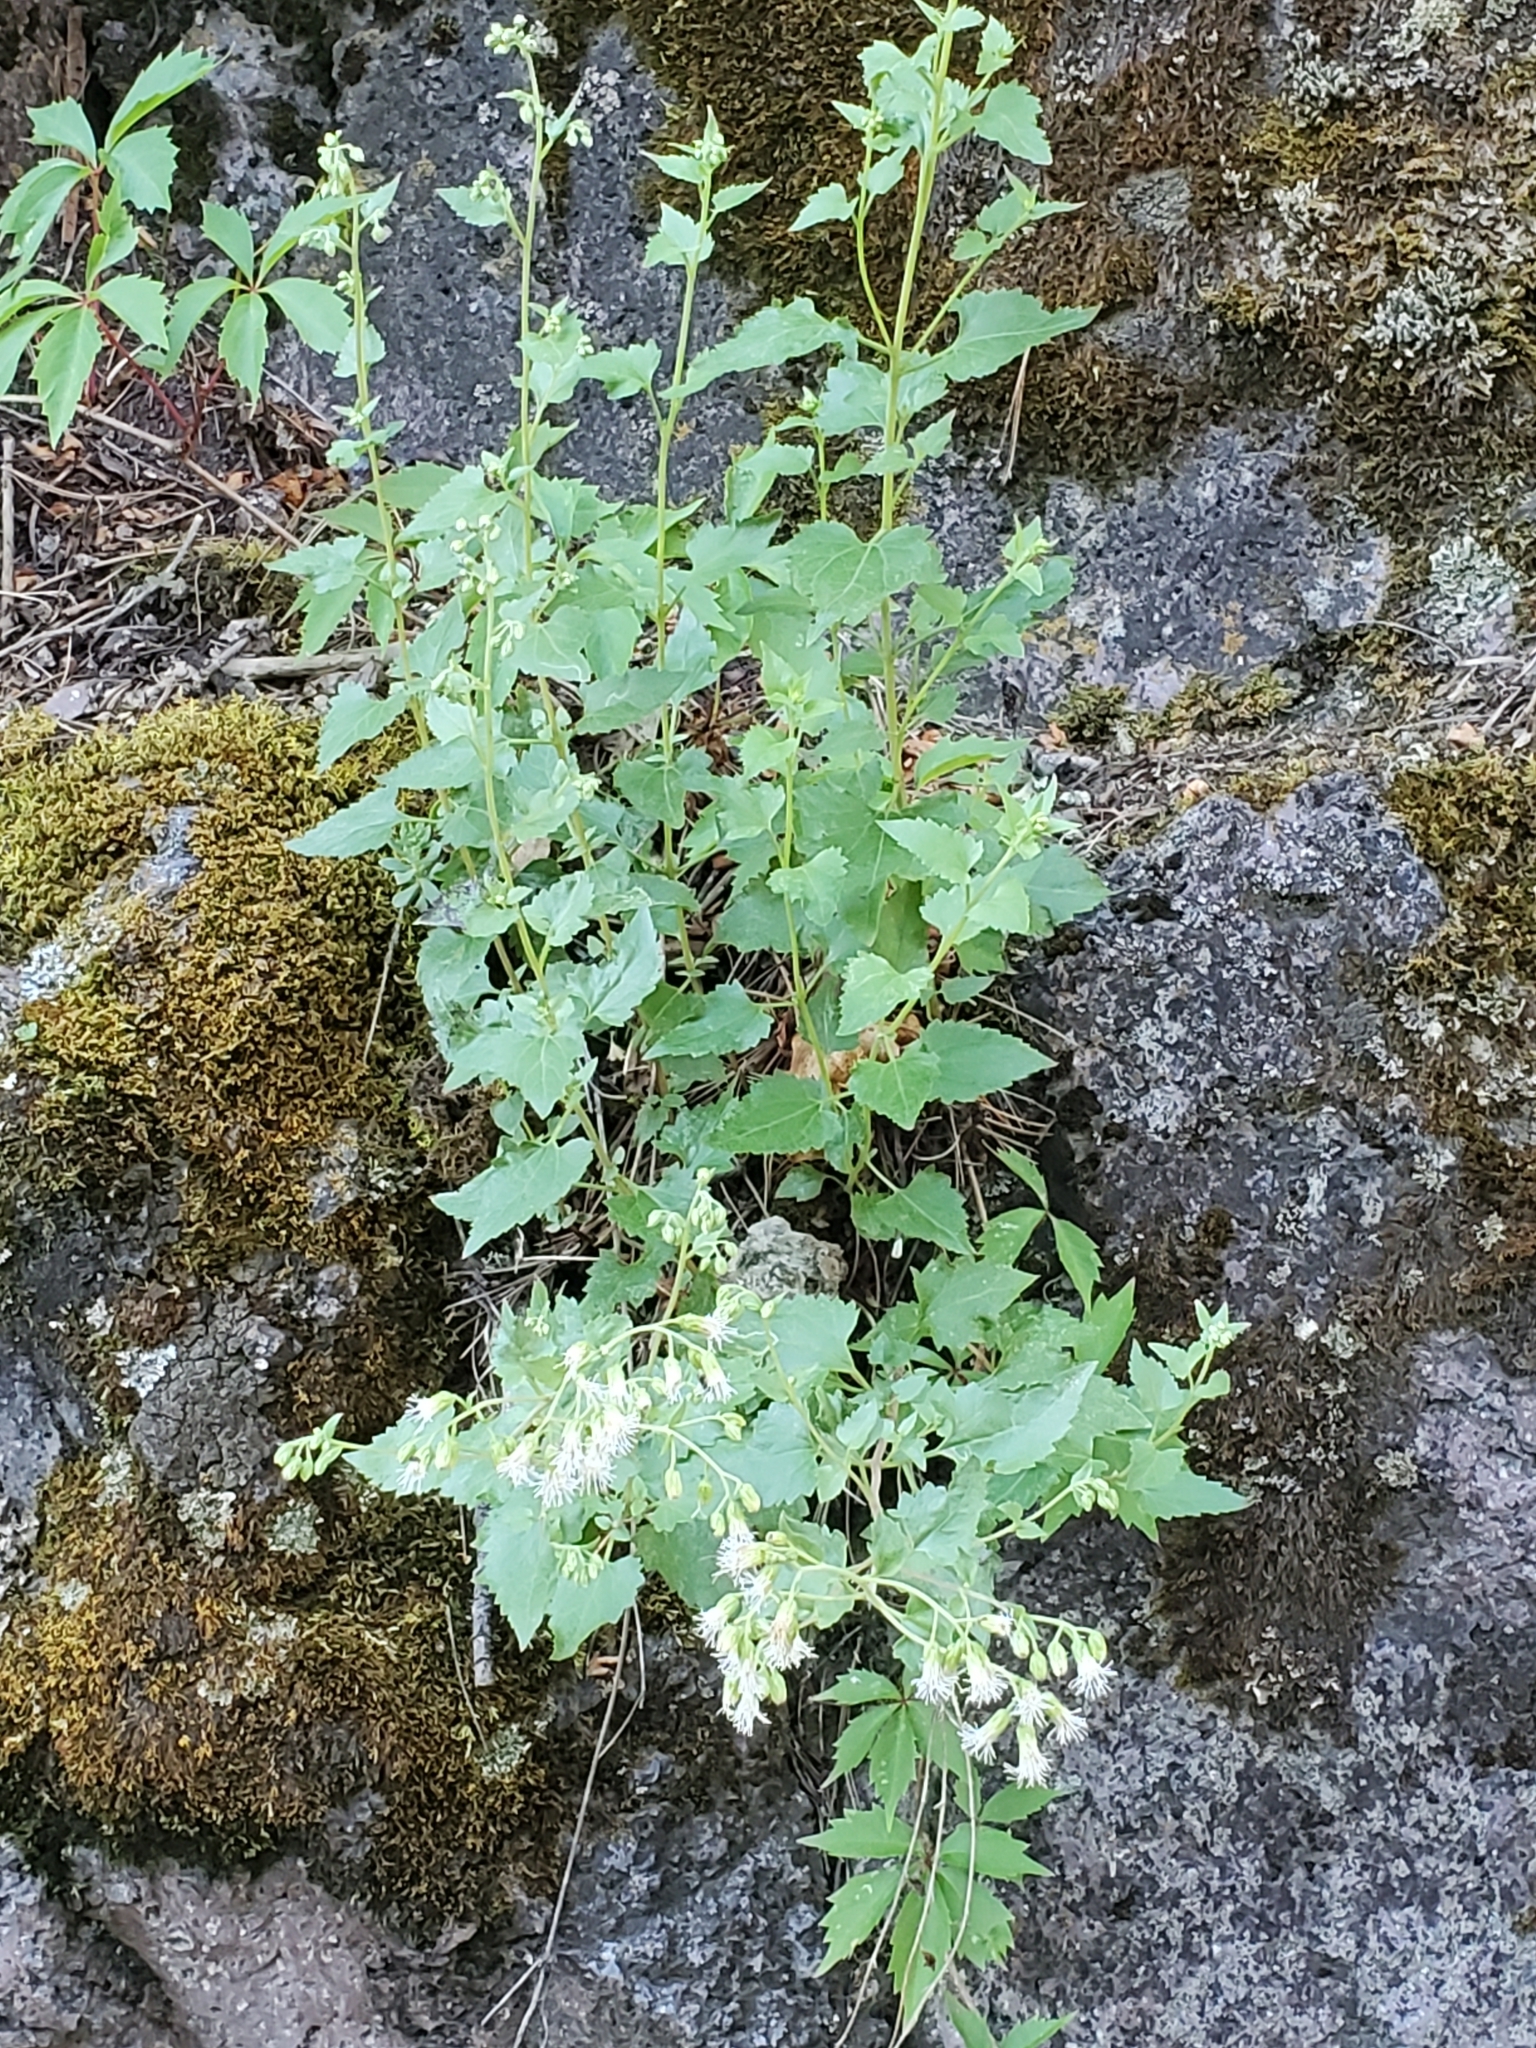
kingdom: Plantae
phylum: Tracheophyta
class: Magnoliopsida
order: Asterales
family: Asteraceae
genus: Brickelliastrum
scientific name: Brickelliastrum fendleri
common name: Fendler's-brickellbush
